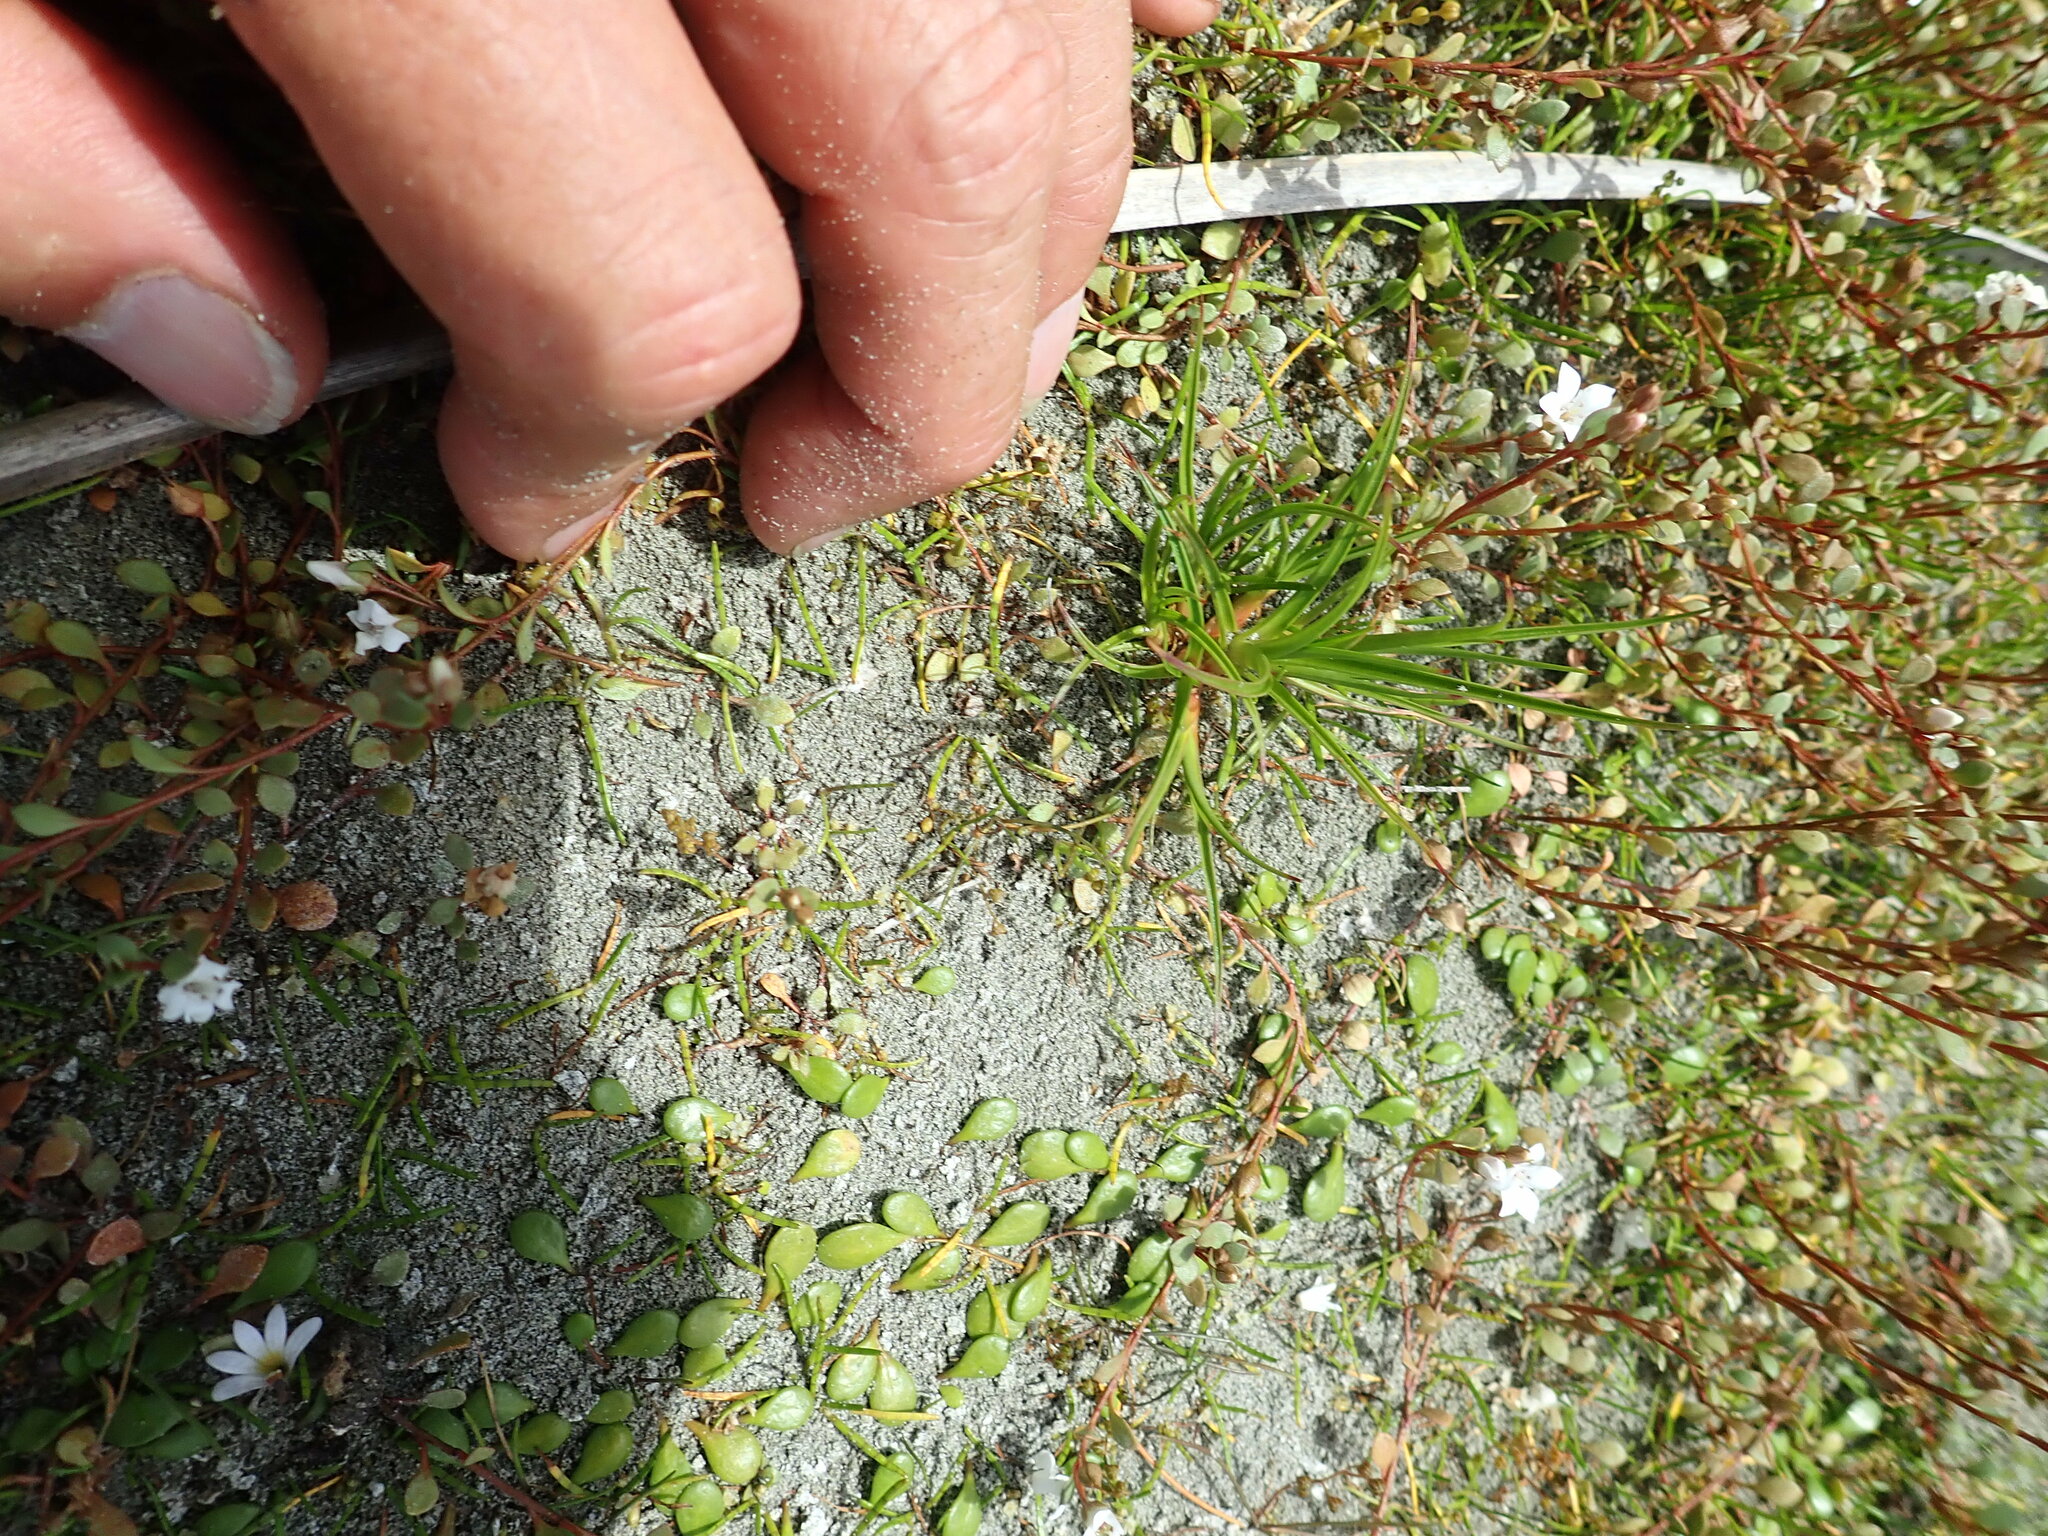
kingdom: Plantae
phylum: Tracheophyta
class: Liliopsida
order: Poales
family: Juncaceae
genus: Juncus
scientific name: Juncus caespiticius
